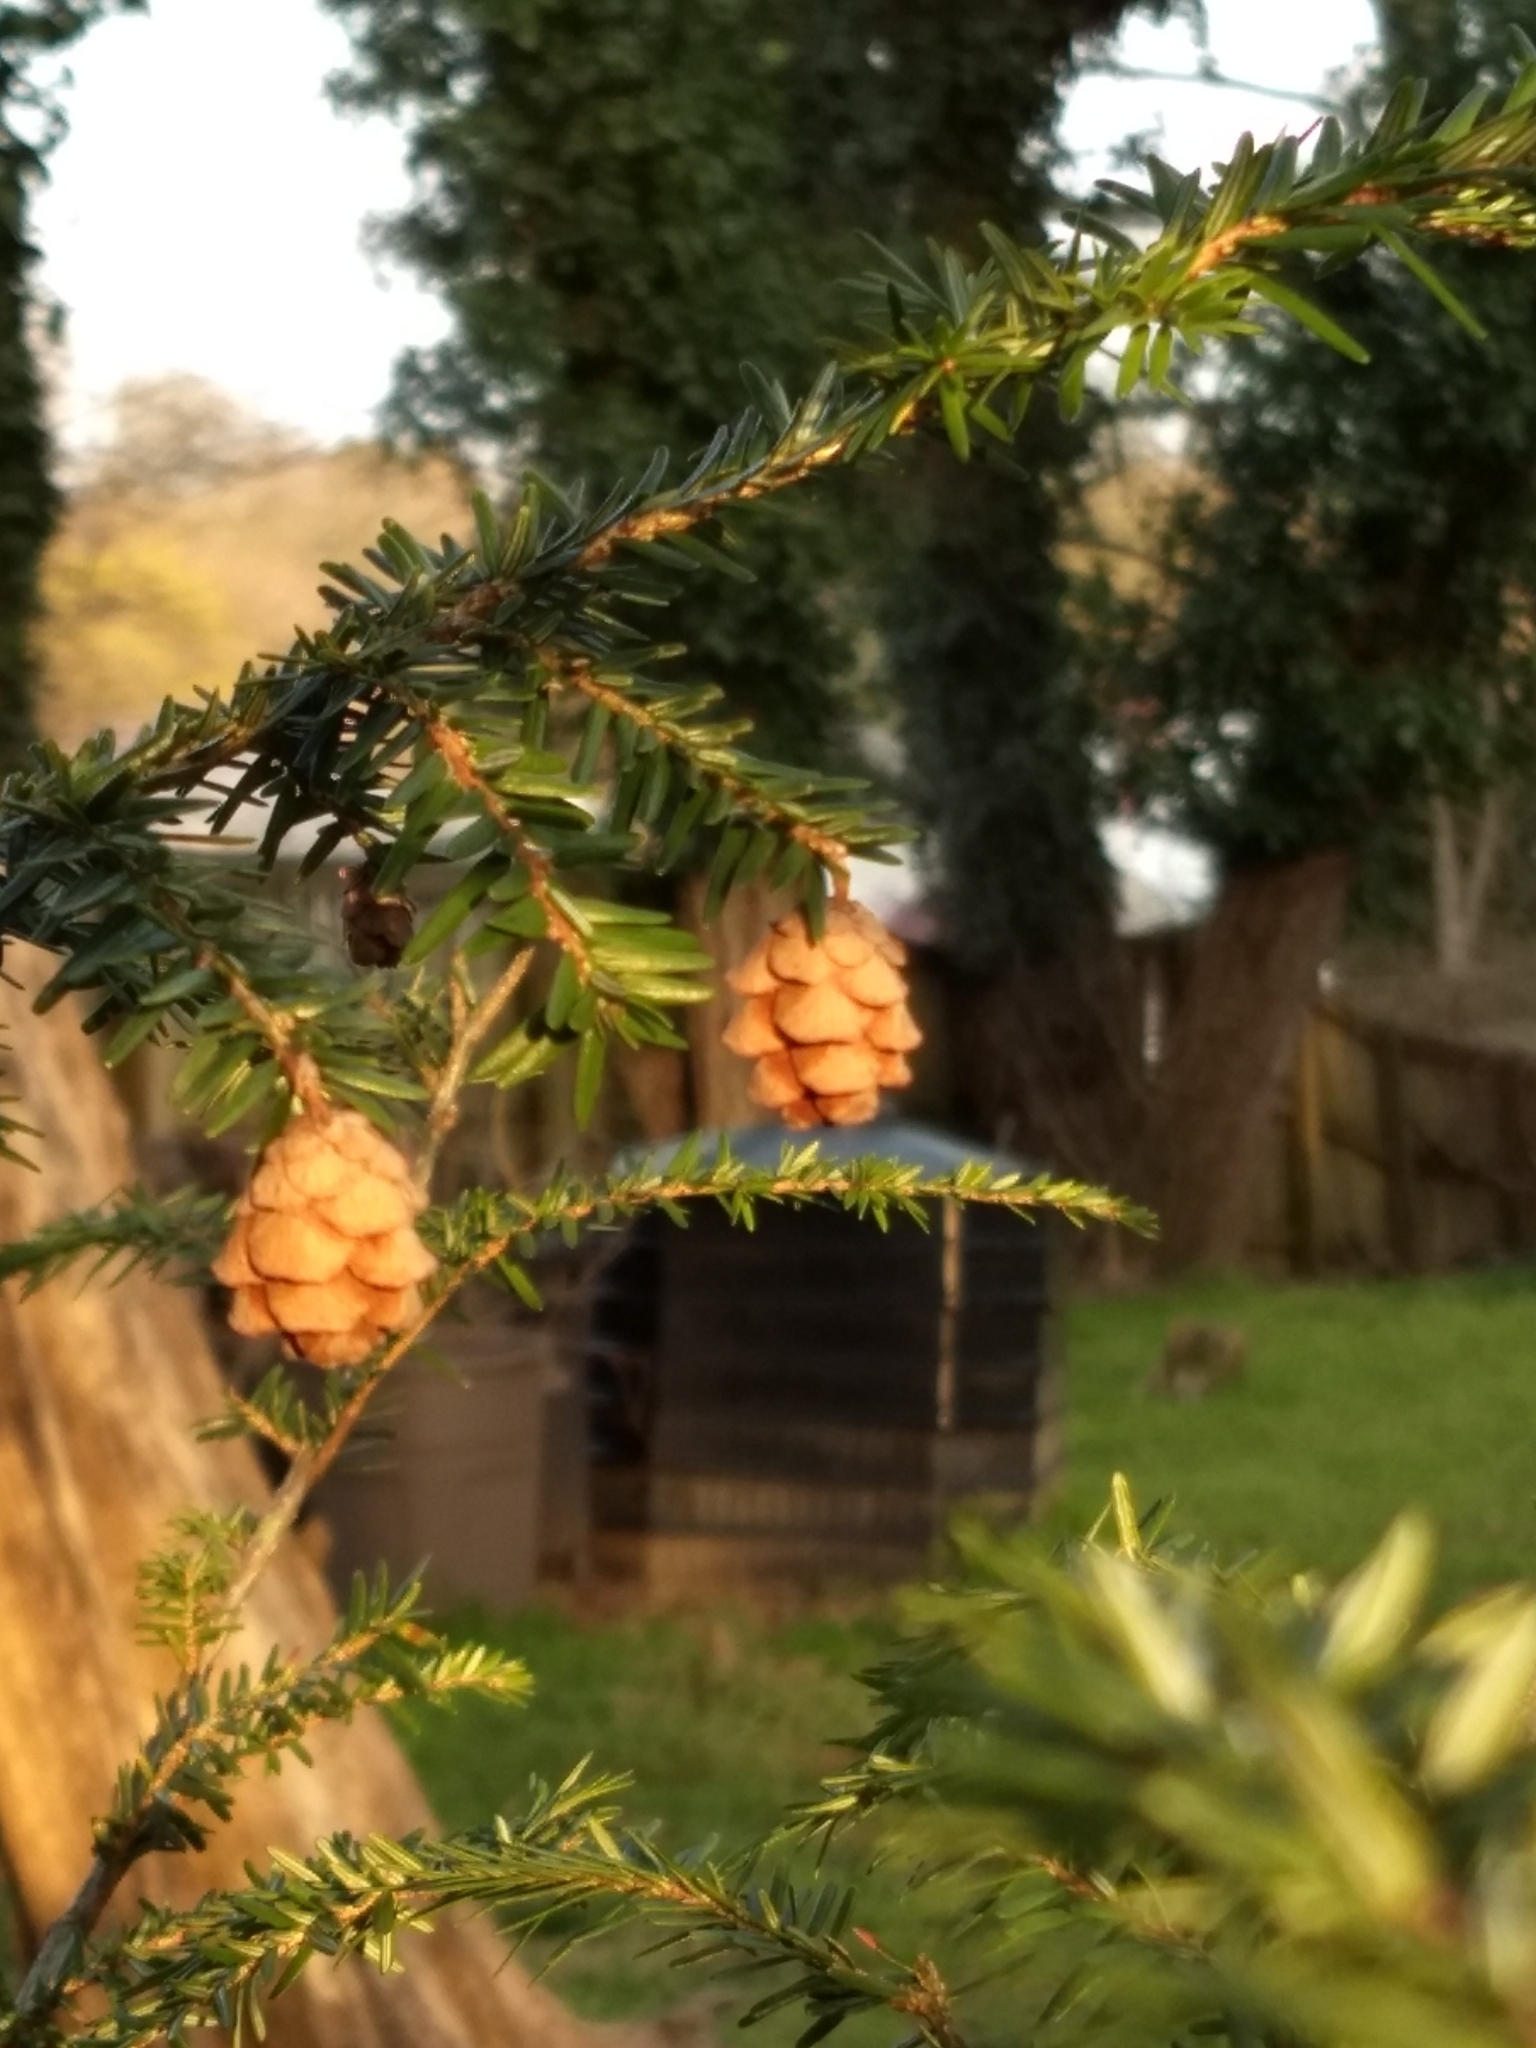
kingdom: Plantae
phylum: Tracheophyta
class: Pinopsida
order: Pinales
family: Pinaceae
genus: Tsuga
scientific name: Tsuga canadensis
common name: Eastern hemlock
